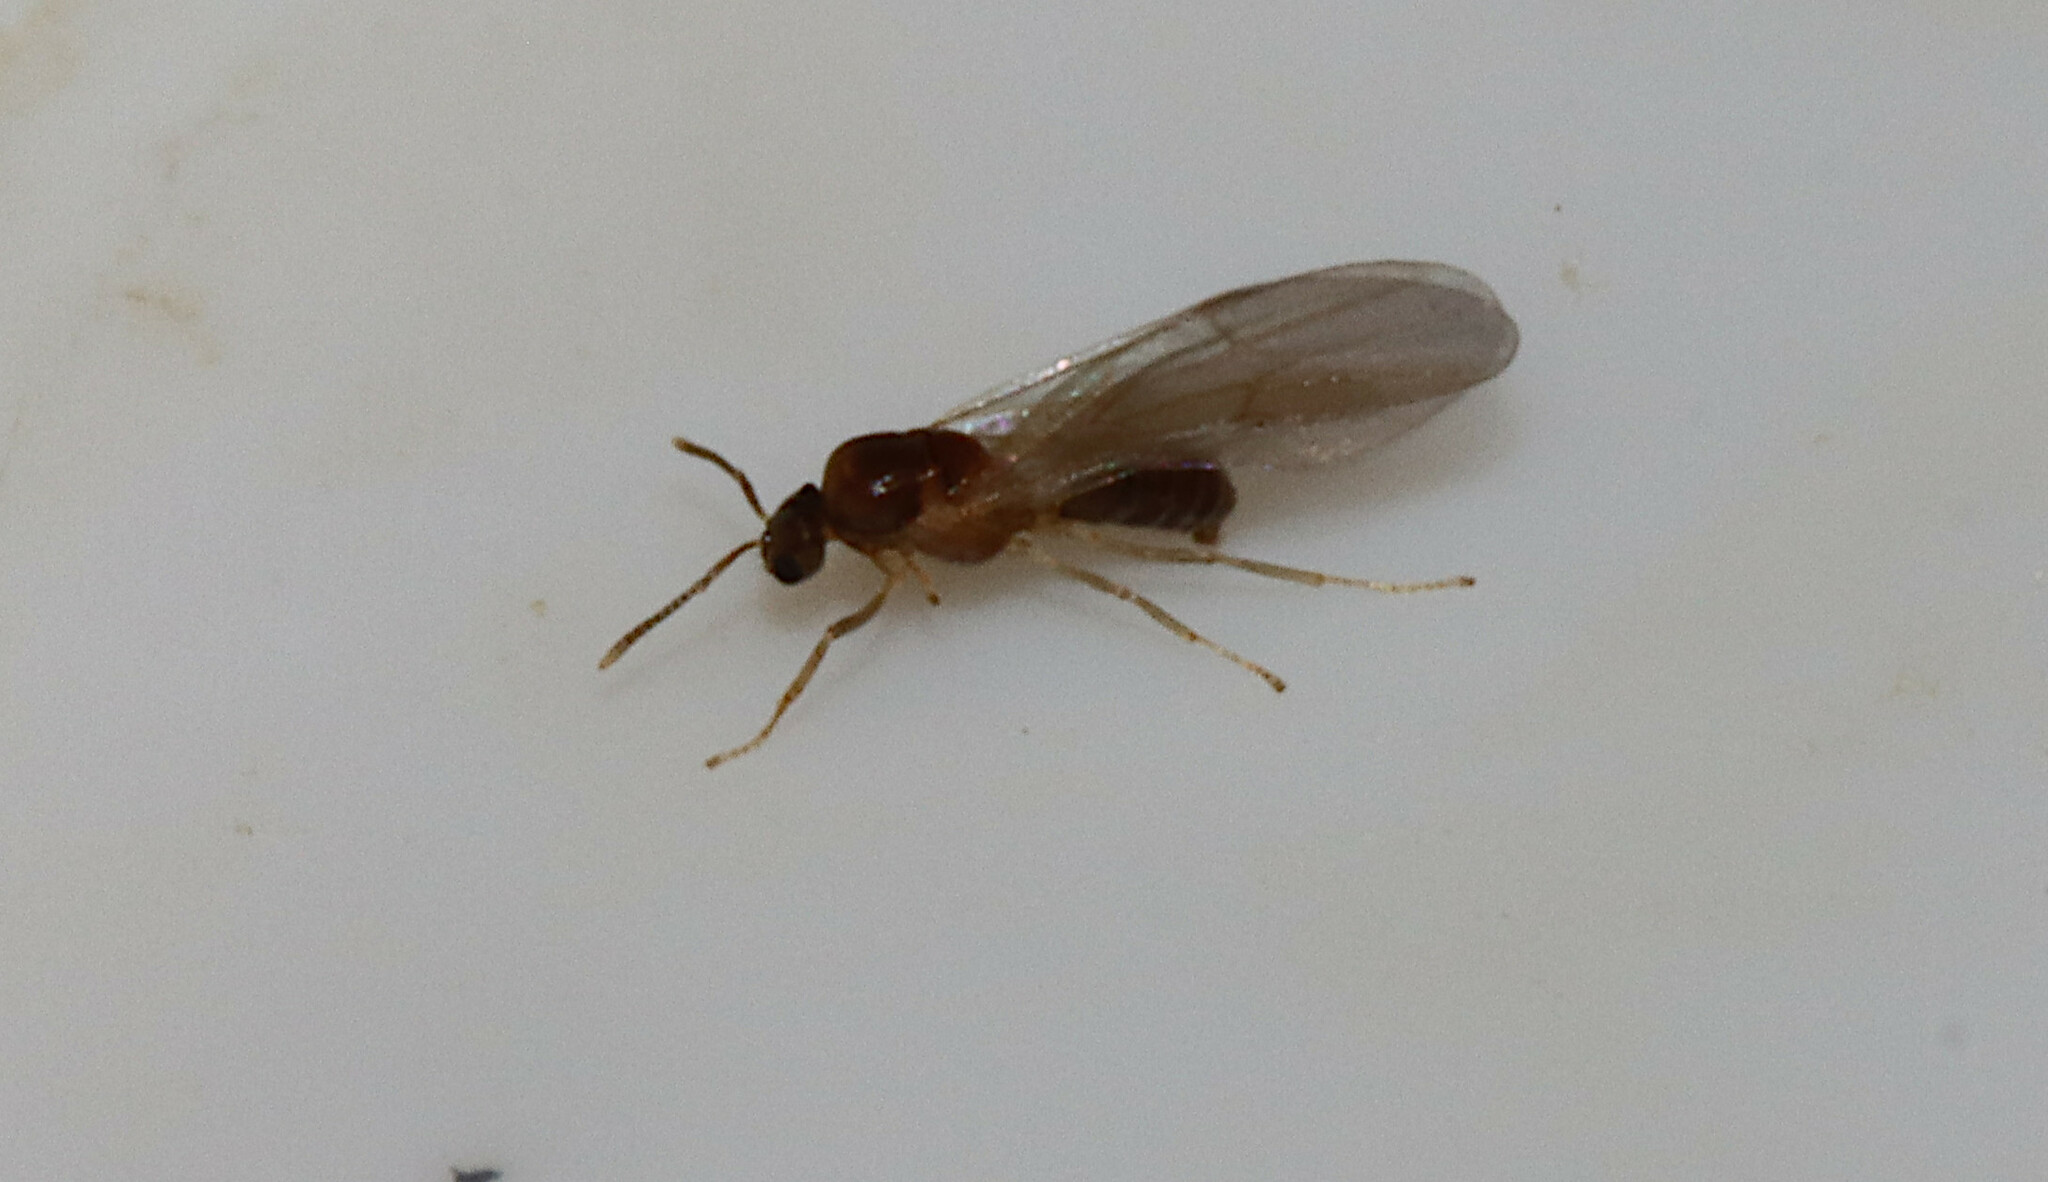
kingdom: Animalia
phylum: Arthropoda
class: Insecta
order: Hymenoptera
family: Formicidae
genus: Brachymyrmex
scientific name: Brachymyrmex depilis
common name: Hairless rover ant
